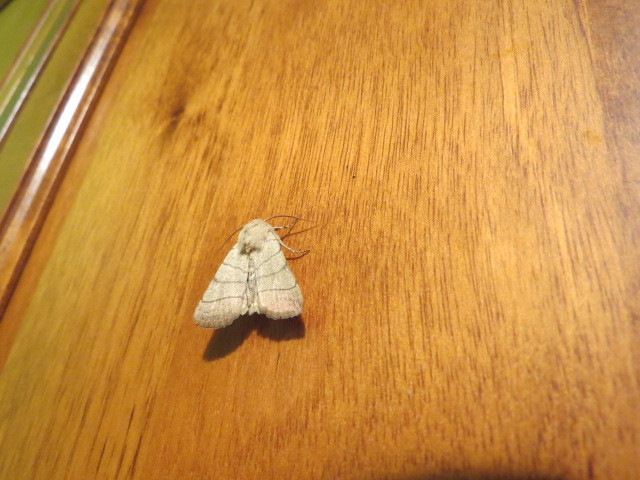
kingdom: Animalia
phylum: Arthropoda
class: Insecta
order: Lepidoptera
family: Noctuidae
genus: Charanyca
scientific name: Charanyca trigrammica
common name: Treble lines
